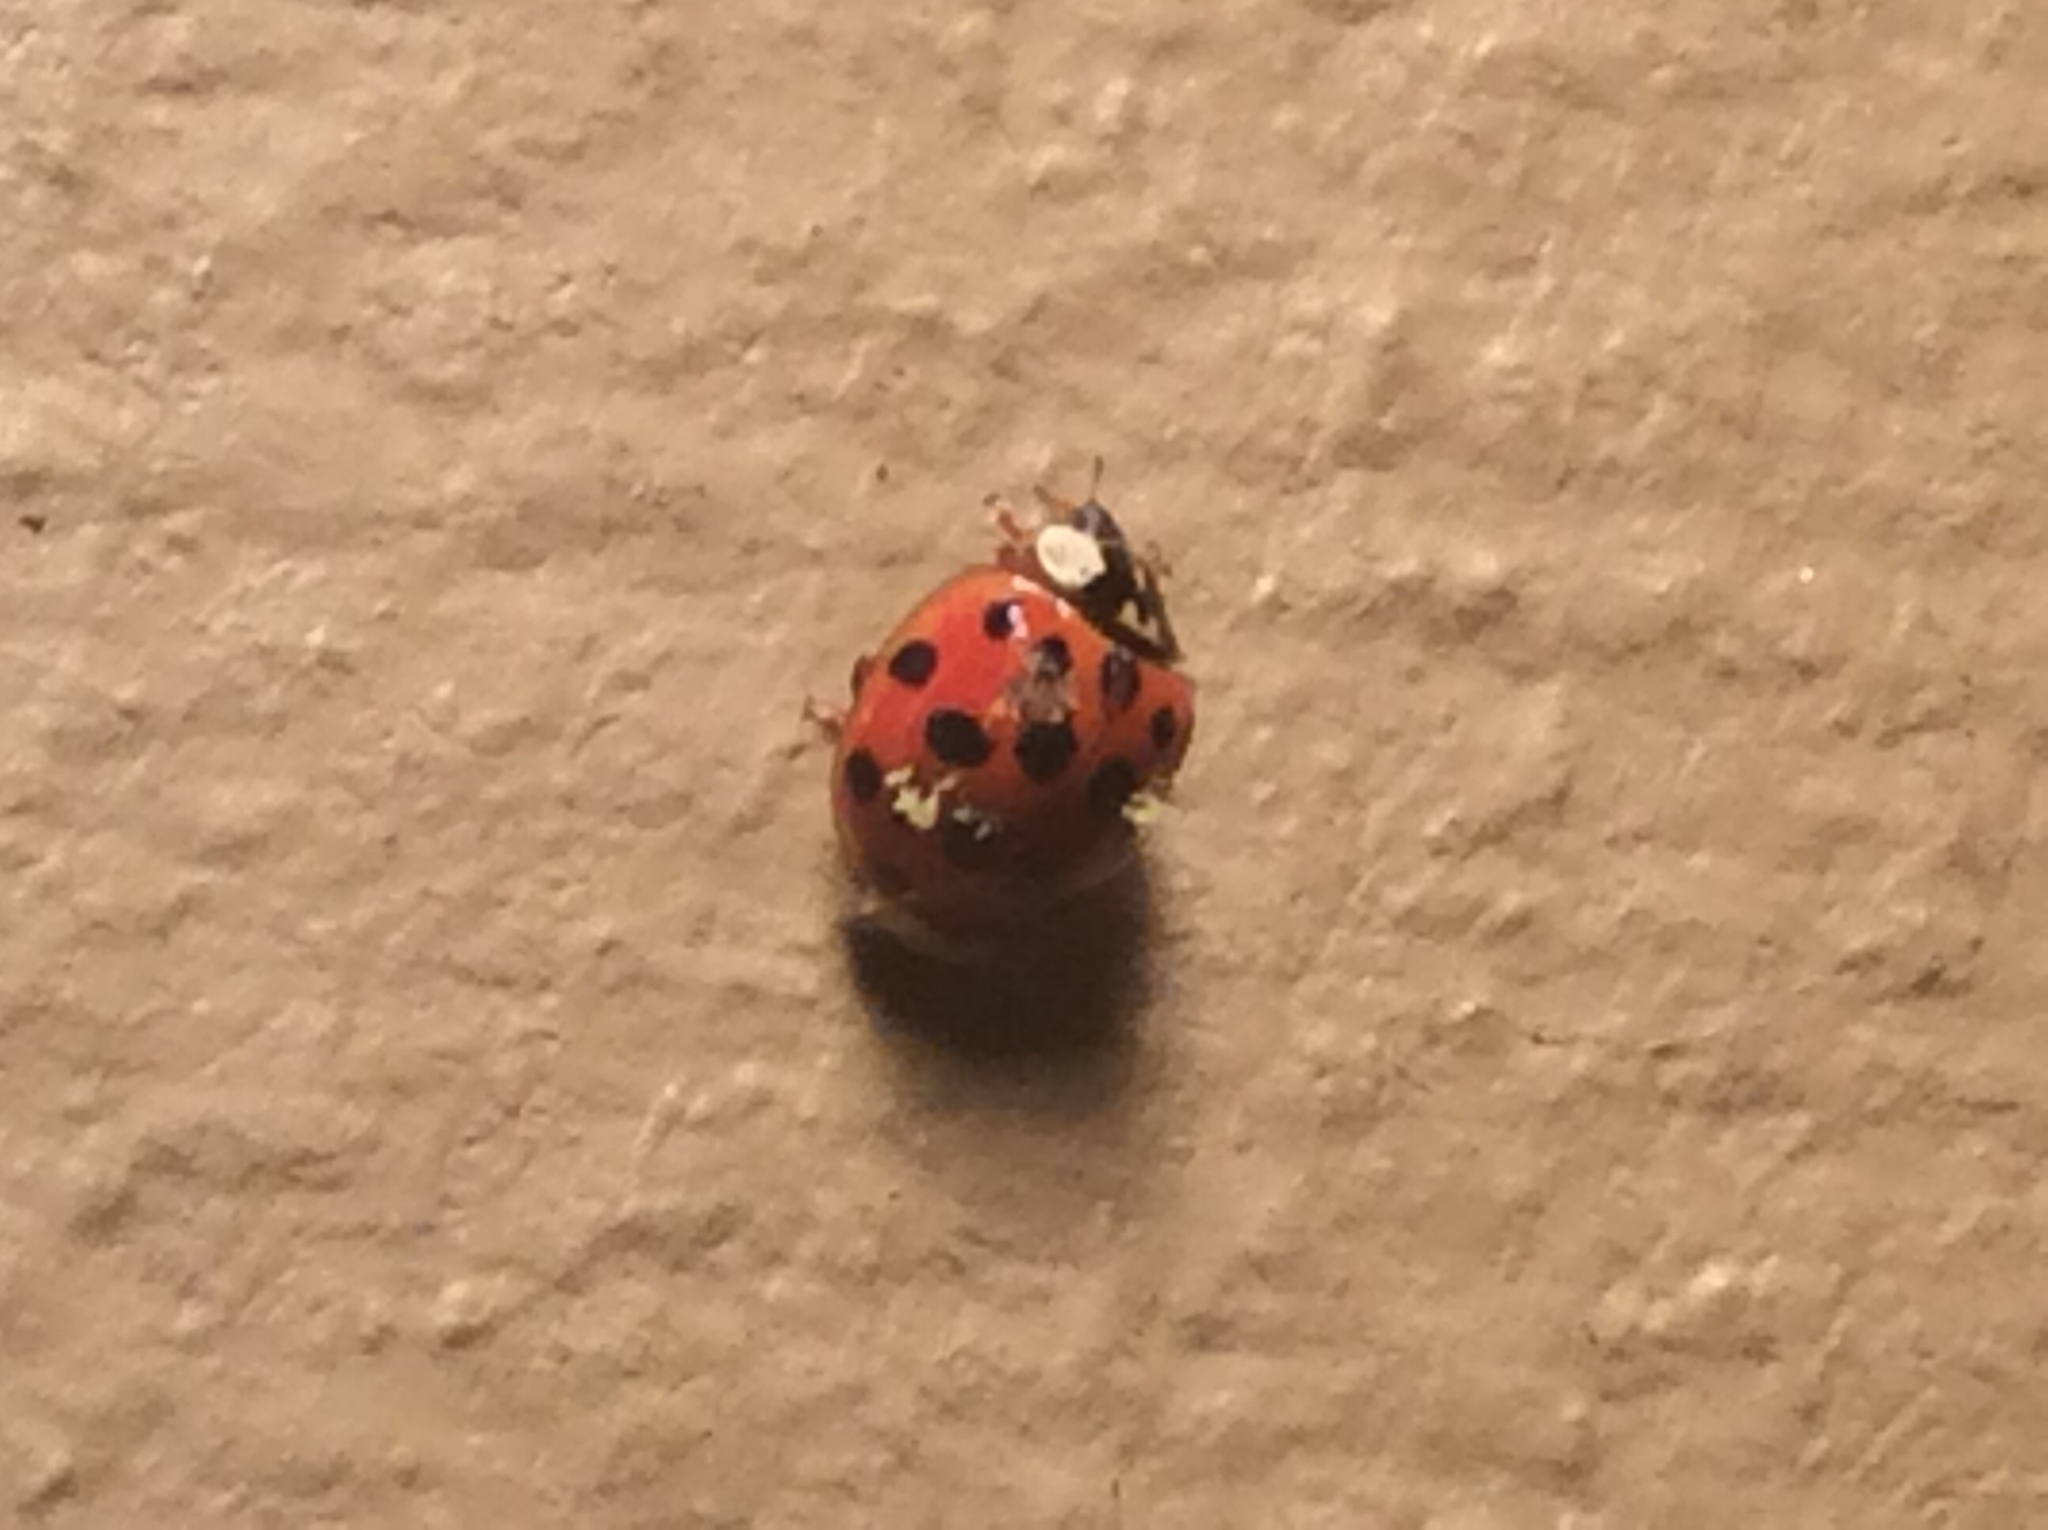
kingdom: Animalia
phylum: Arthropoda
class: Insecta
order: Coleoptera
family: Coccinellidae
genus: Harmonia
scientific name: Harmonia axyridis
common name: Harlequin ladybird
